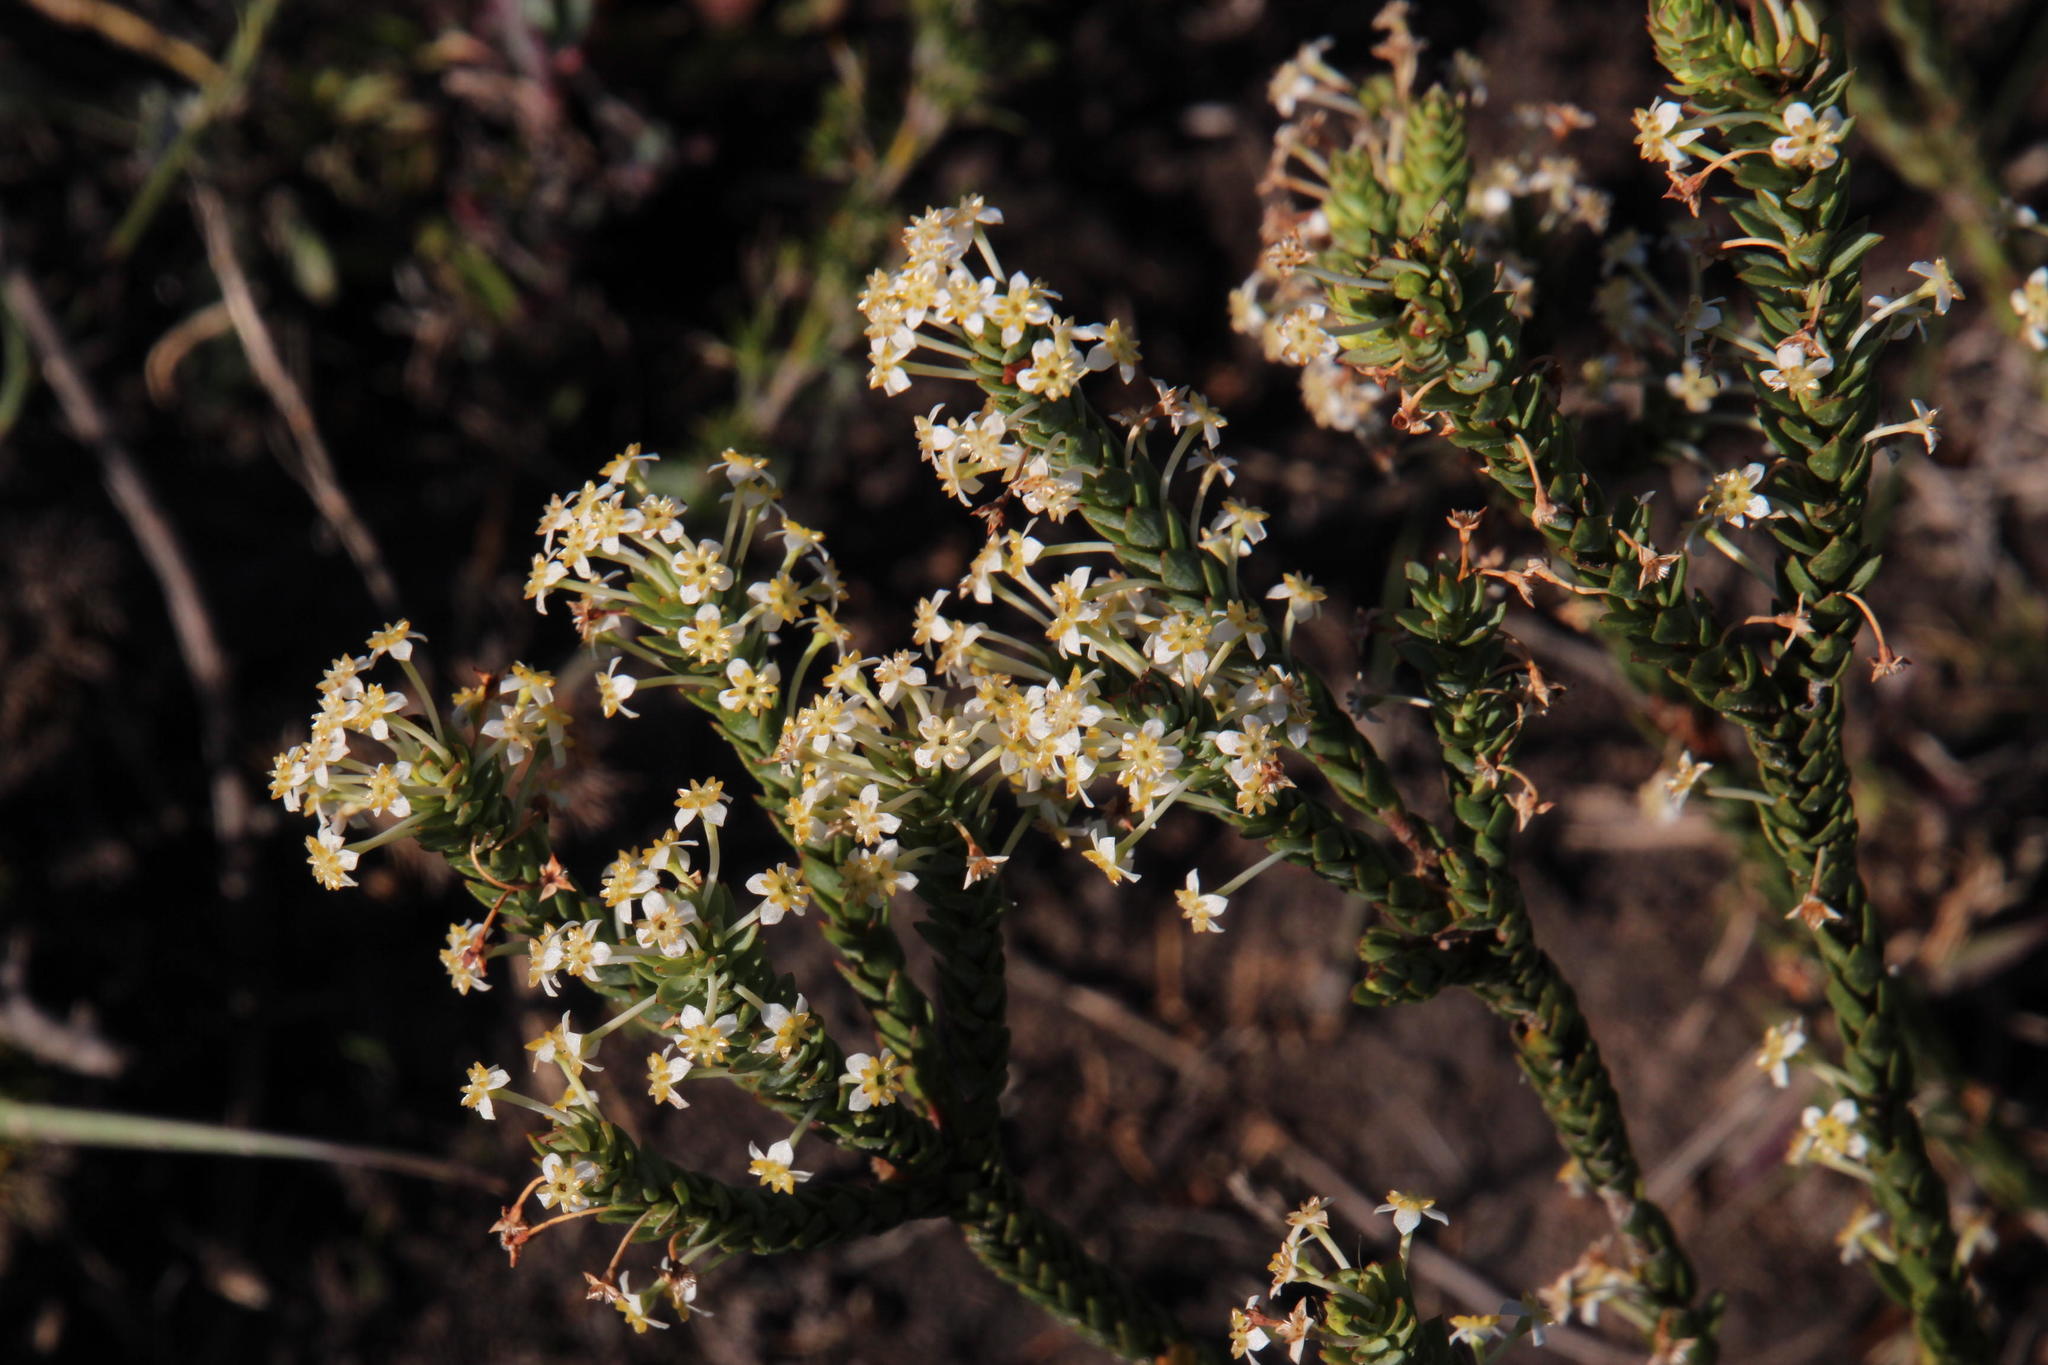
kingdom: Plantae
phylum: Tracheophyta
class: Magnoliopsida
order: Malvales
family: Thymelaeaceae
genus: Struthiola
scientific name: Struthiola hirsuta
